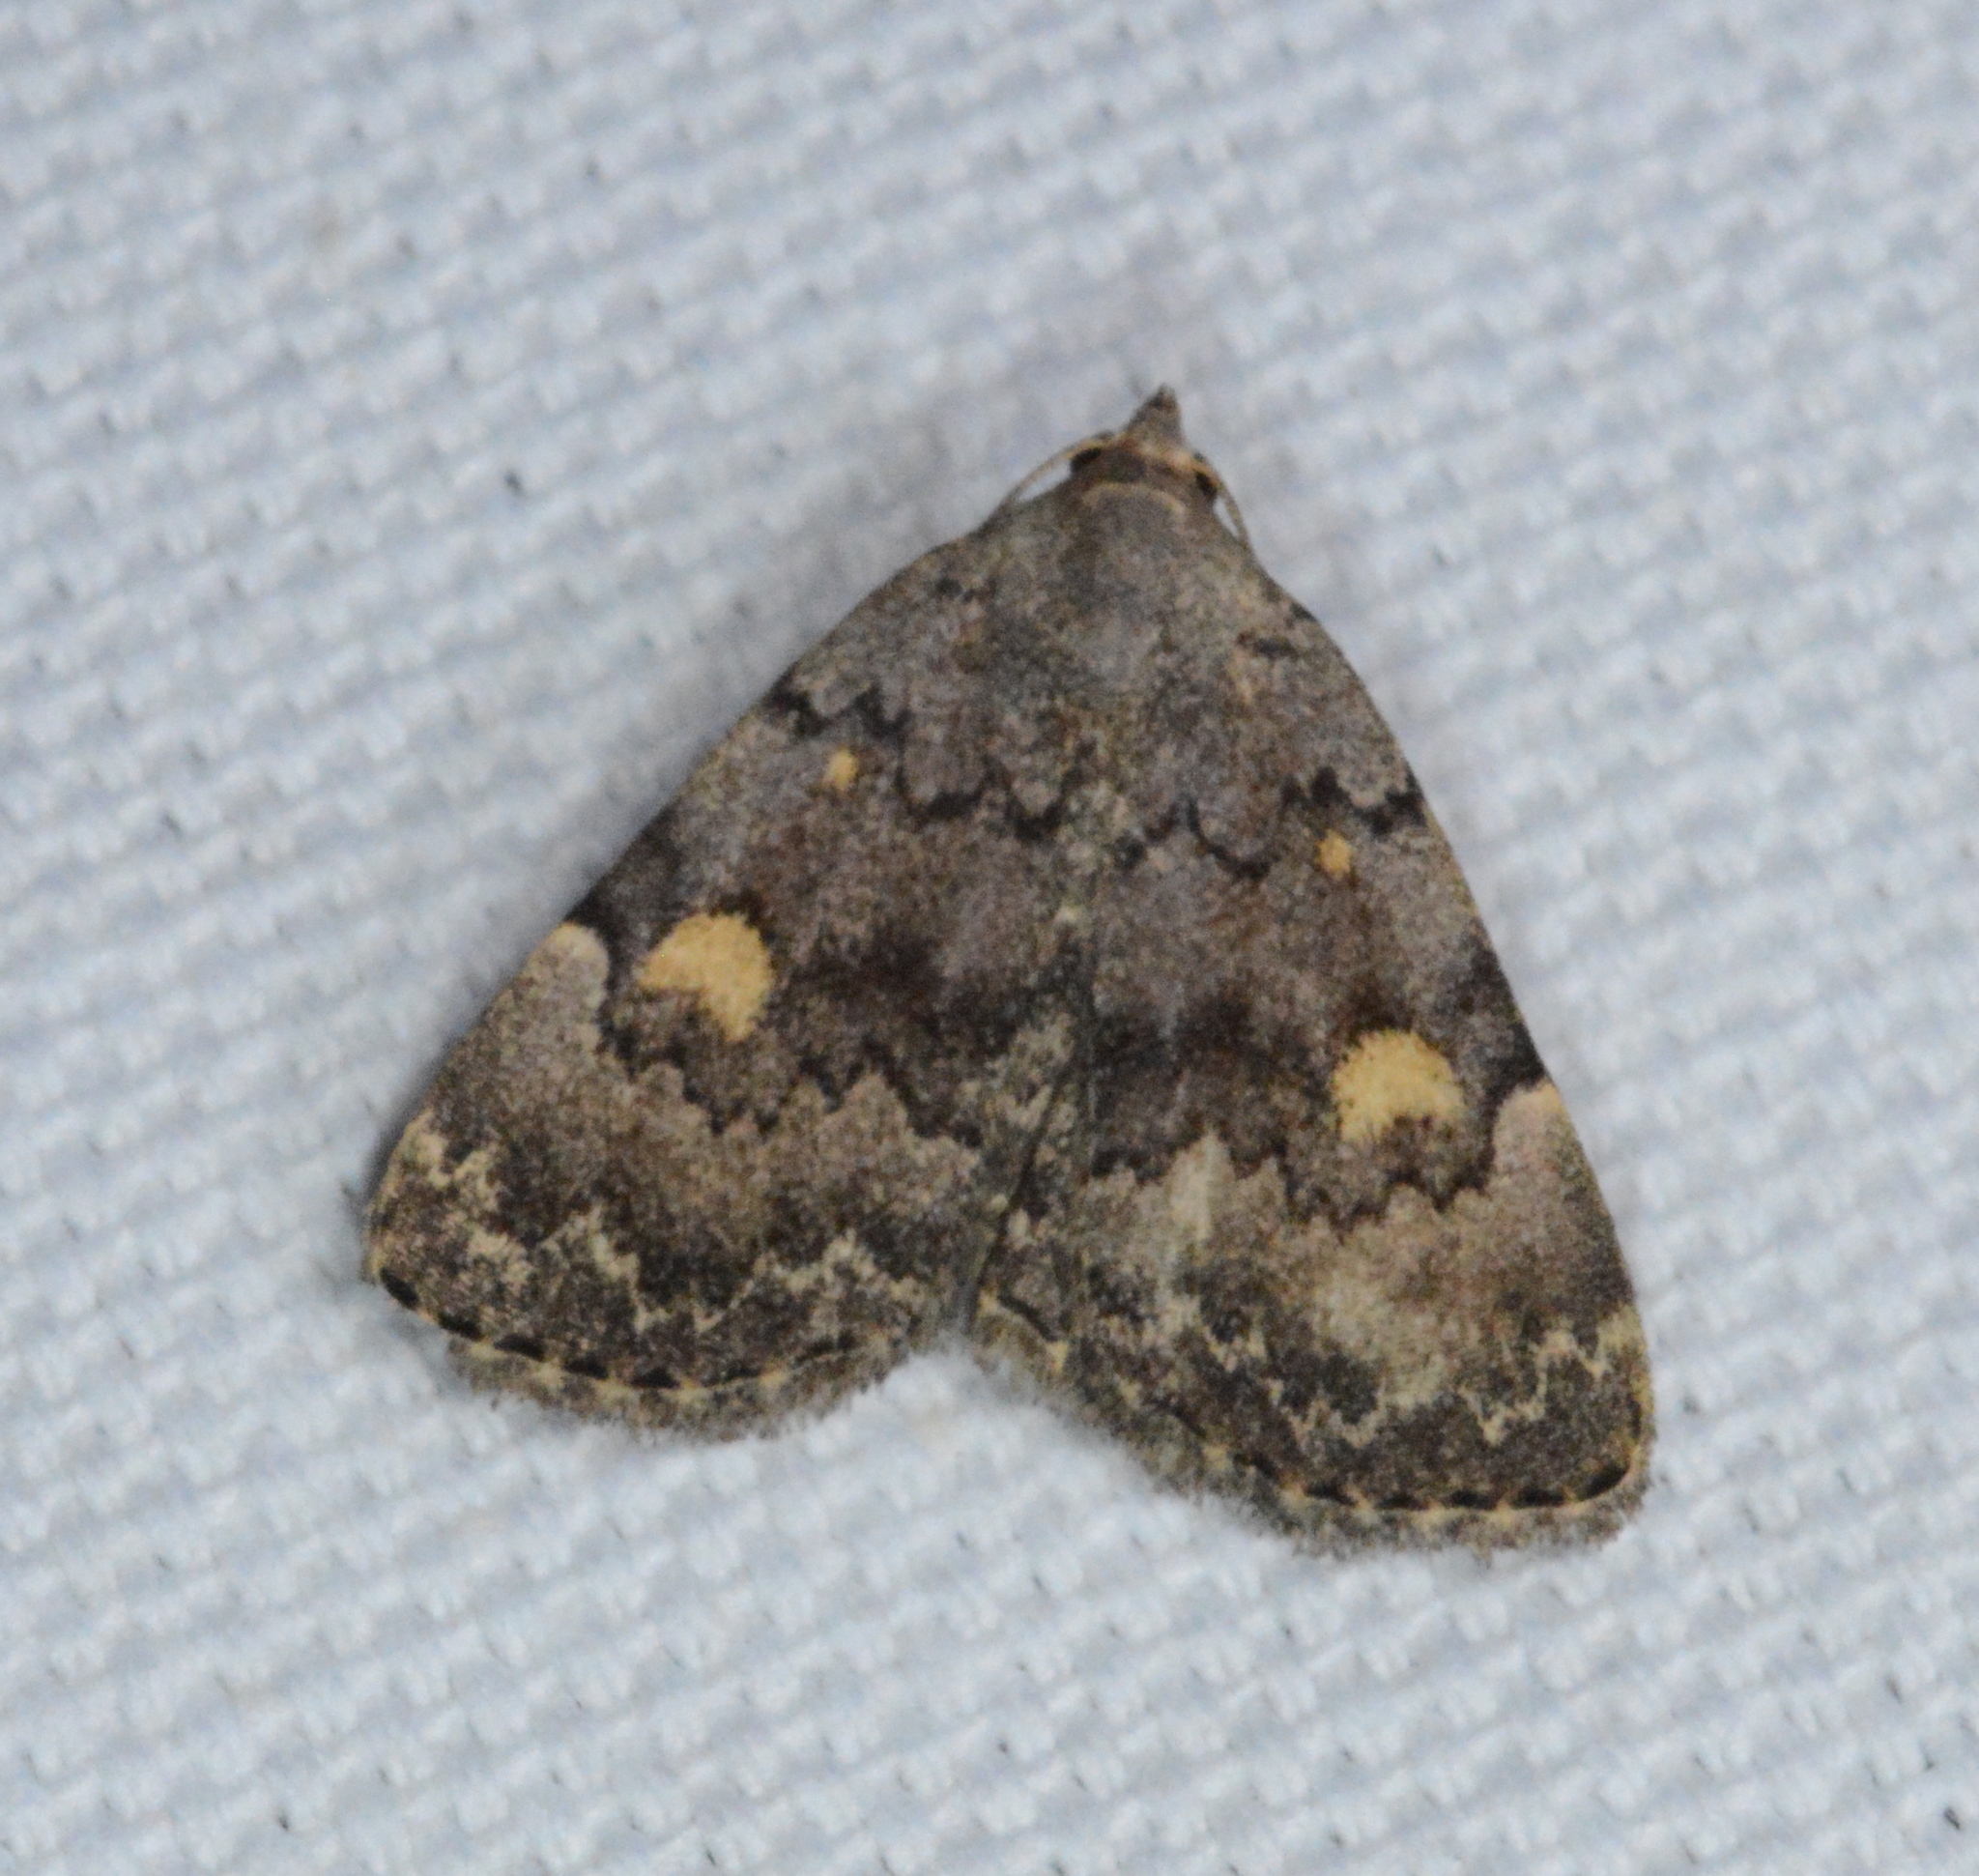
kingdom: Animalia
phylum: Arthropoda
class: Insecta
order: Lepidoptera
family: Erebidae
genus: Idia
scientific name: Idia aemula
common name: Common idia moth
